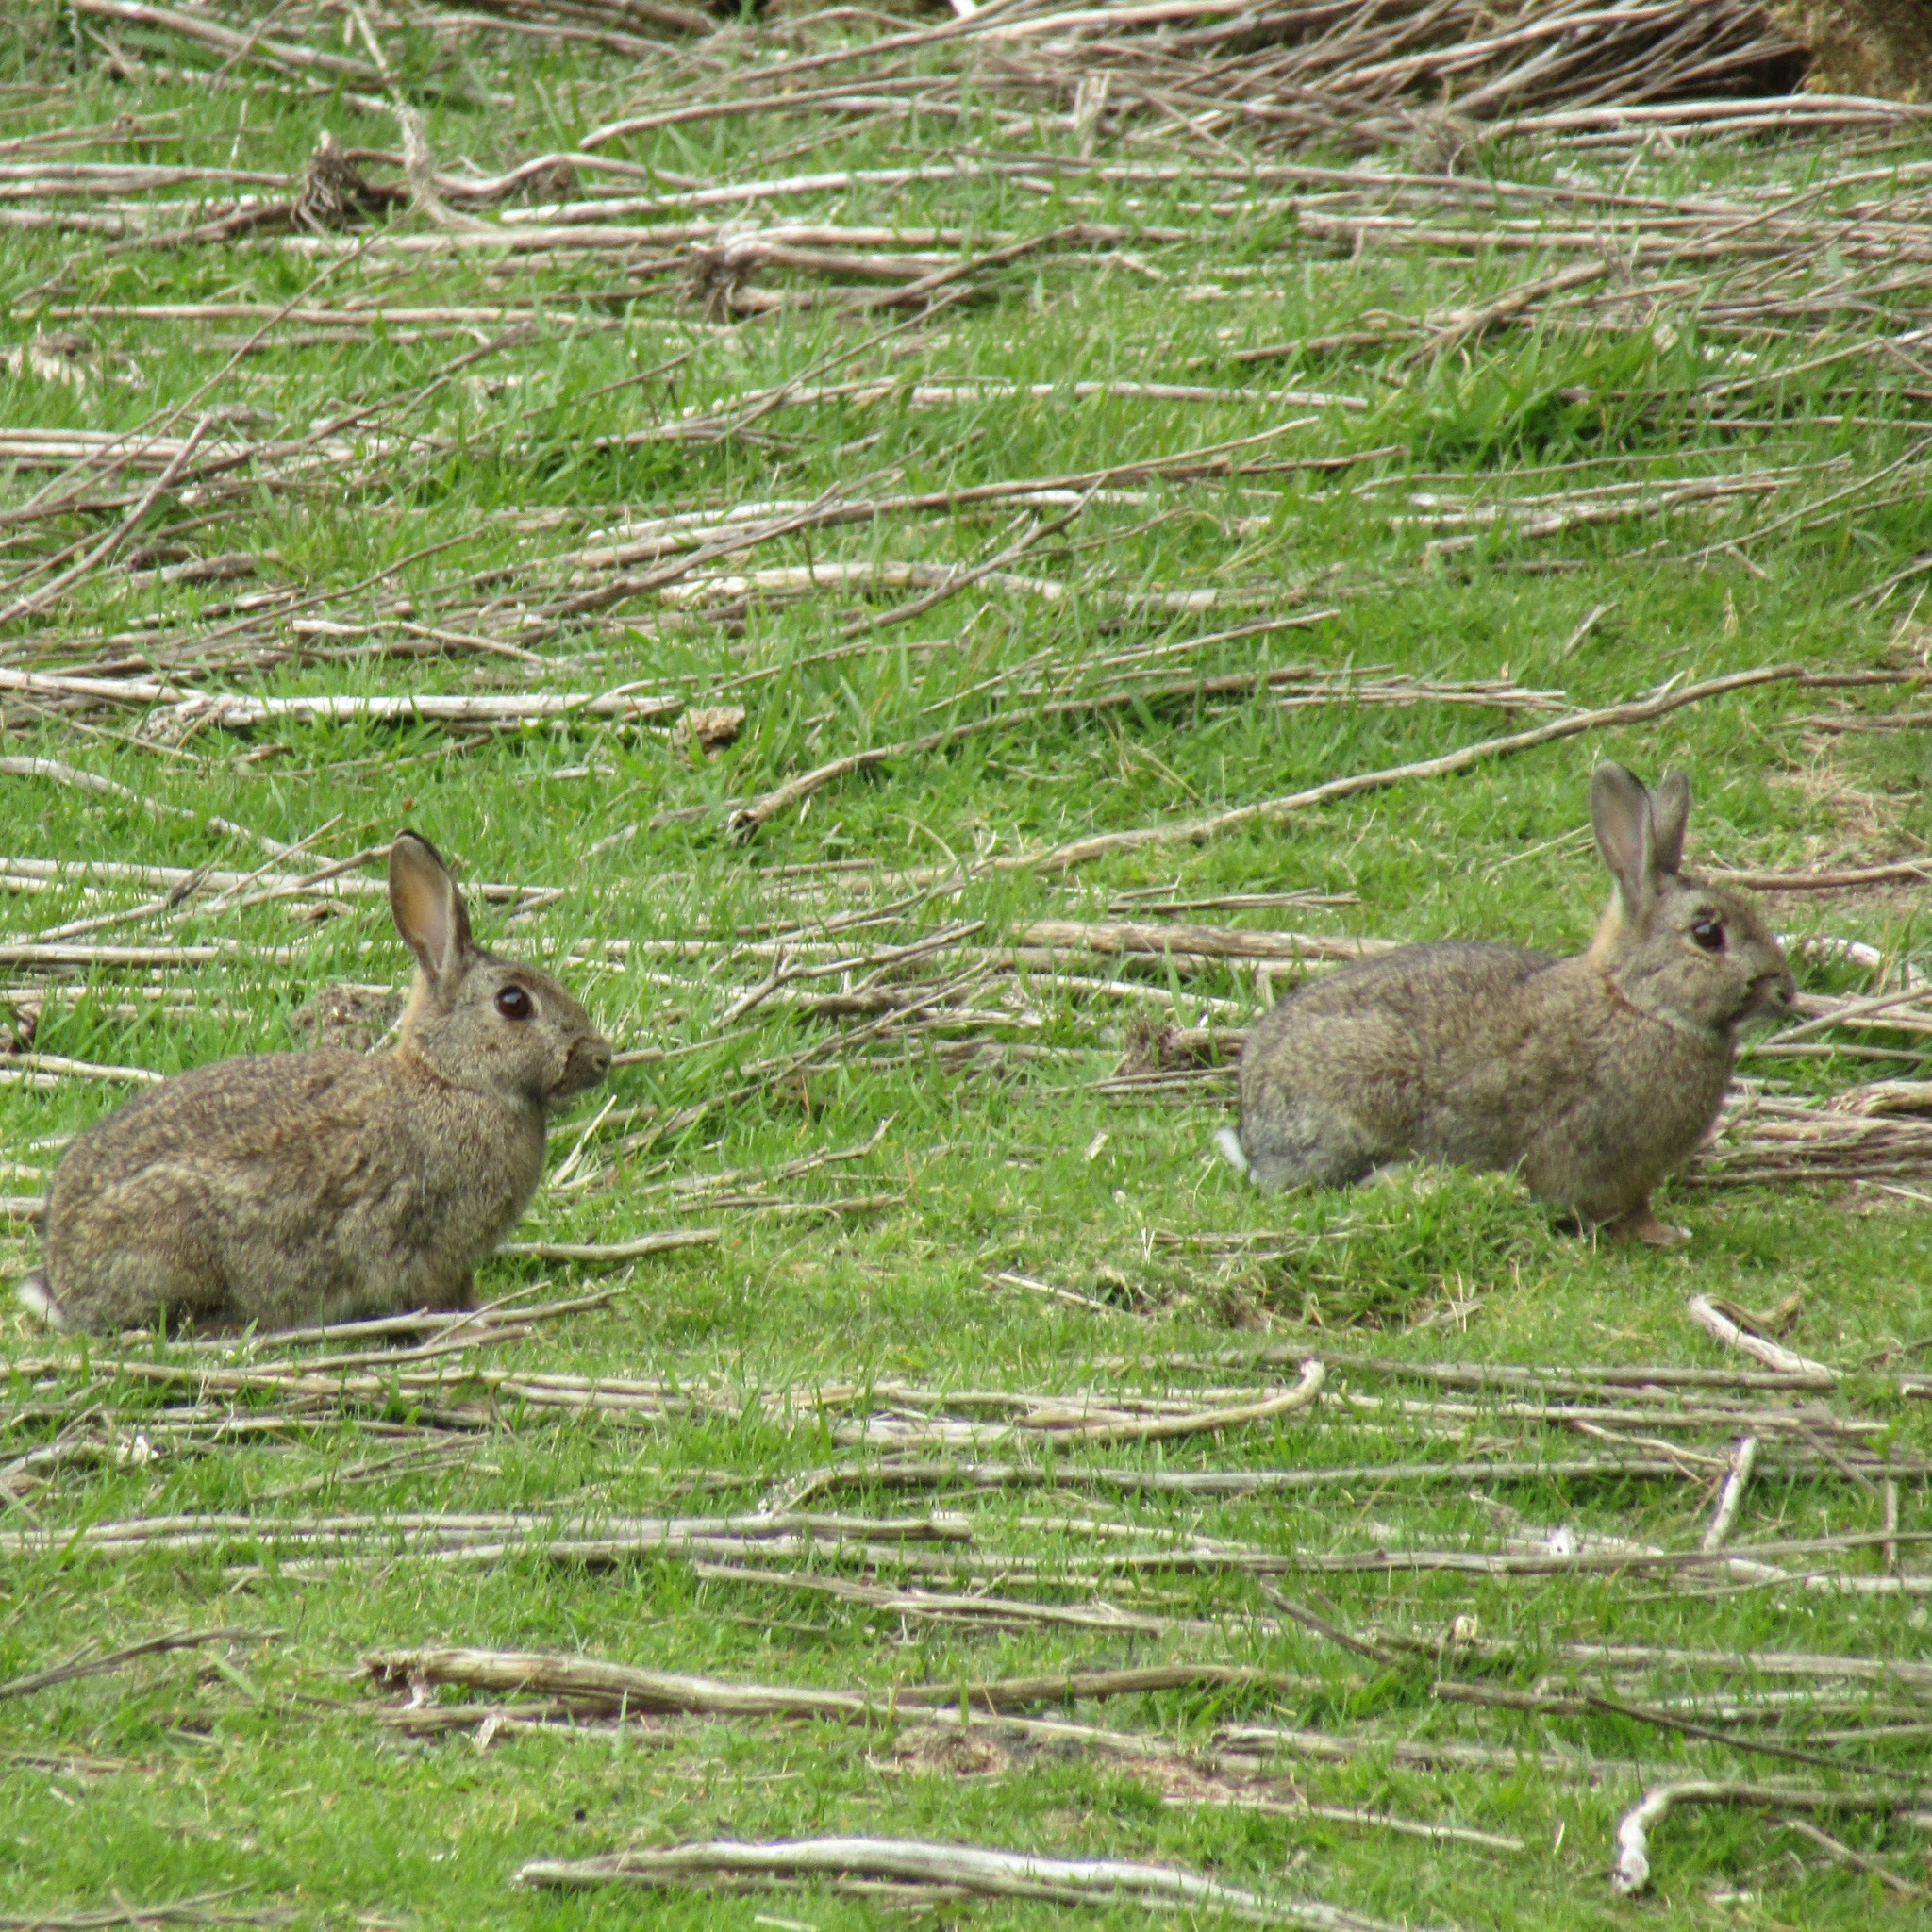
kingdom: Animalia
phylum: Chordata
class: Mammalia
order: Lagomorpha
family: Leporidae
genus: Oryctolagus
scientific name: Oryctolagus cuniculus
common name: European rabbit
